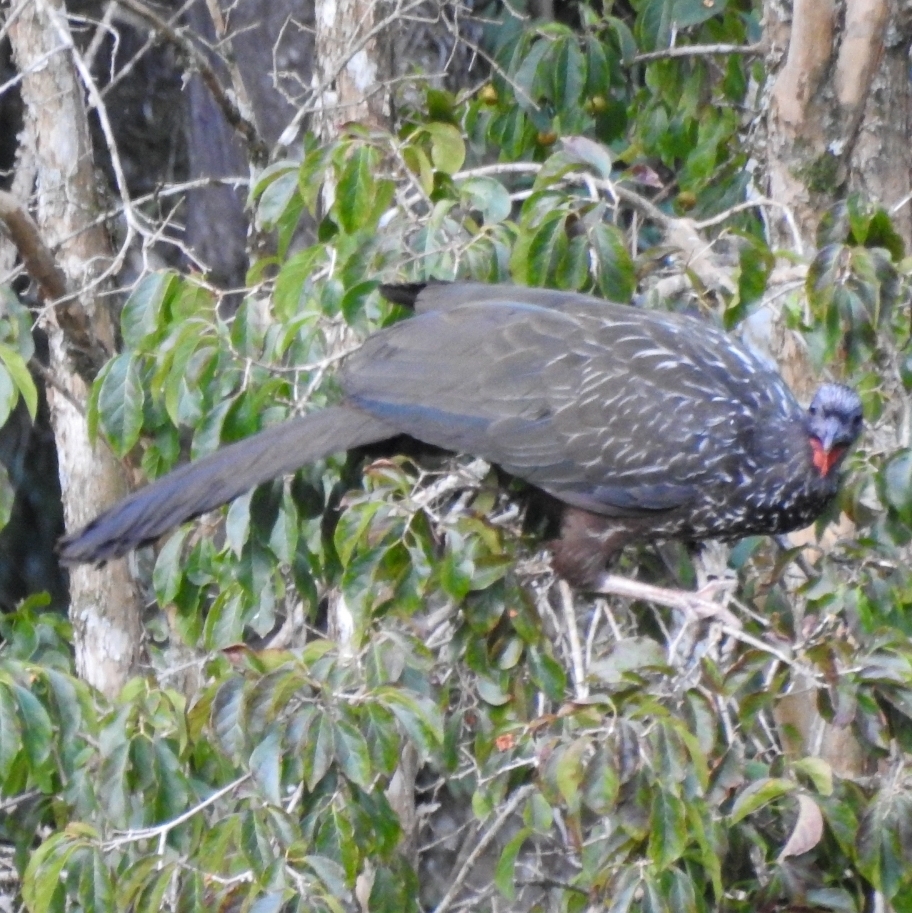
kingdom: Animalia
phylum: Chordata
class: Aves
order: Galliformes
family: Cracidae
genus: Penelope
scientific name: Penelope obscura
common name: Dusky-legged guan
